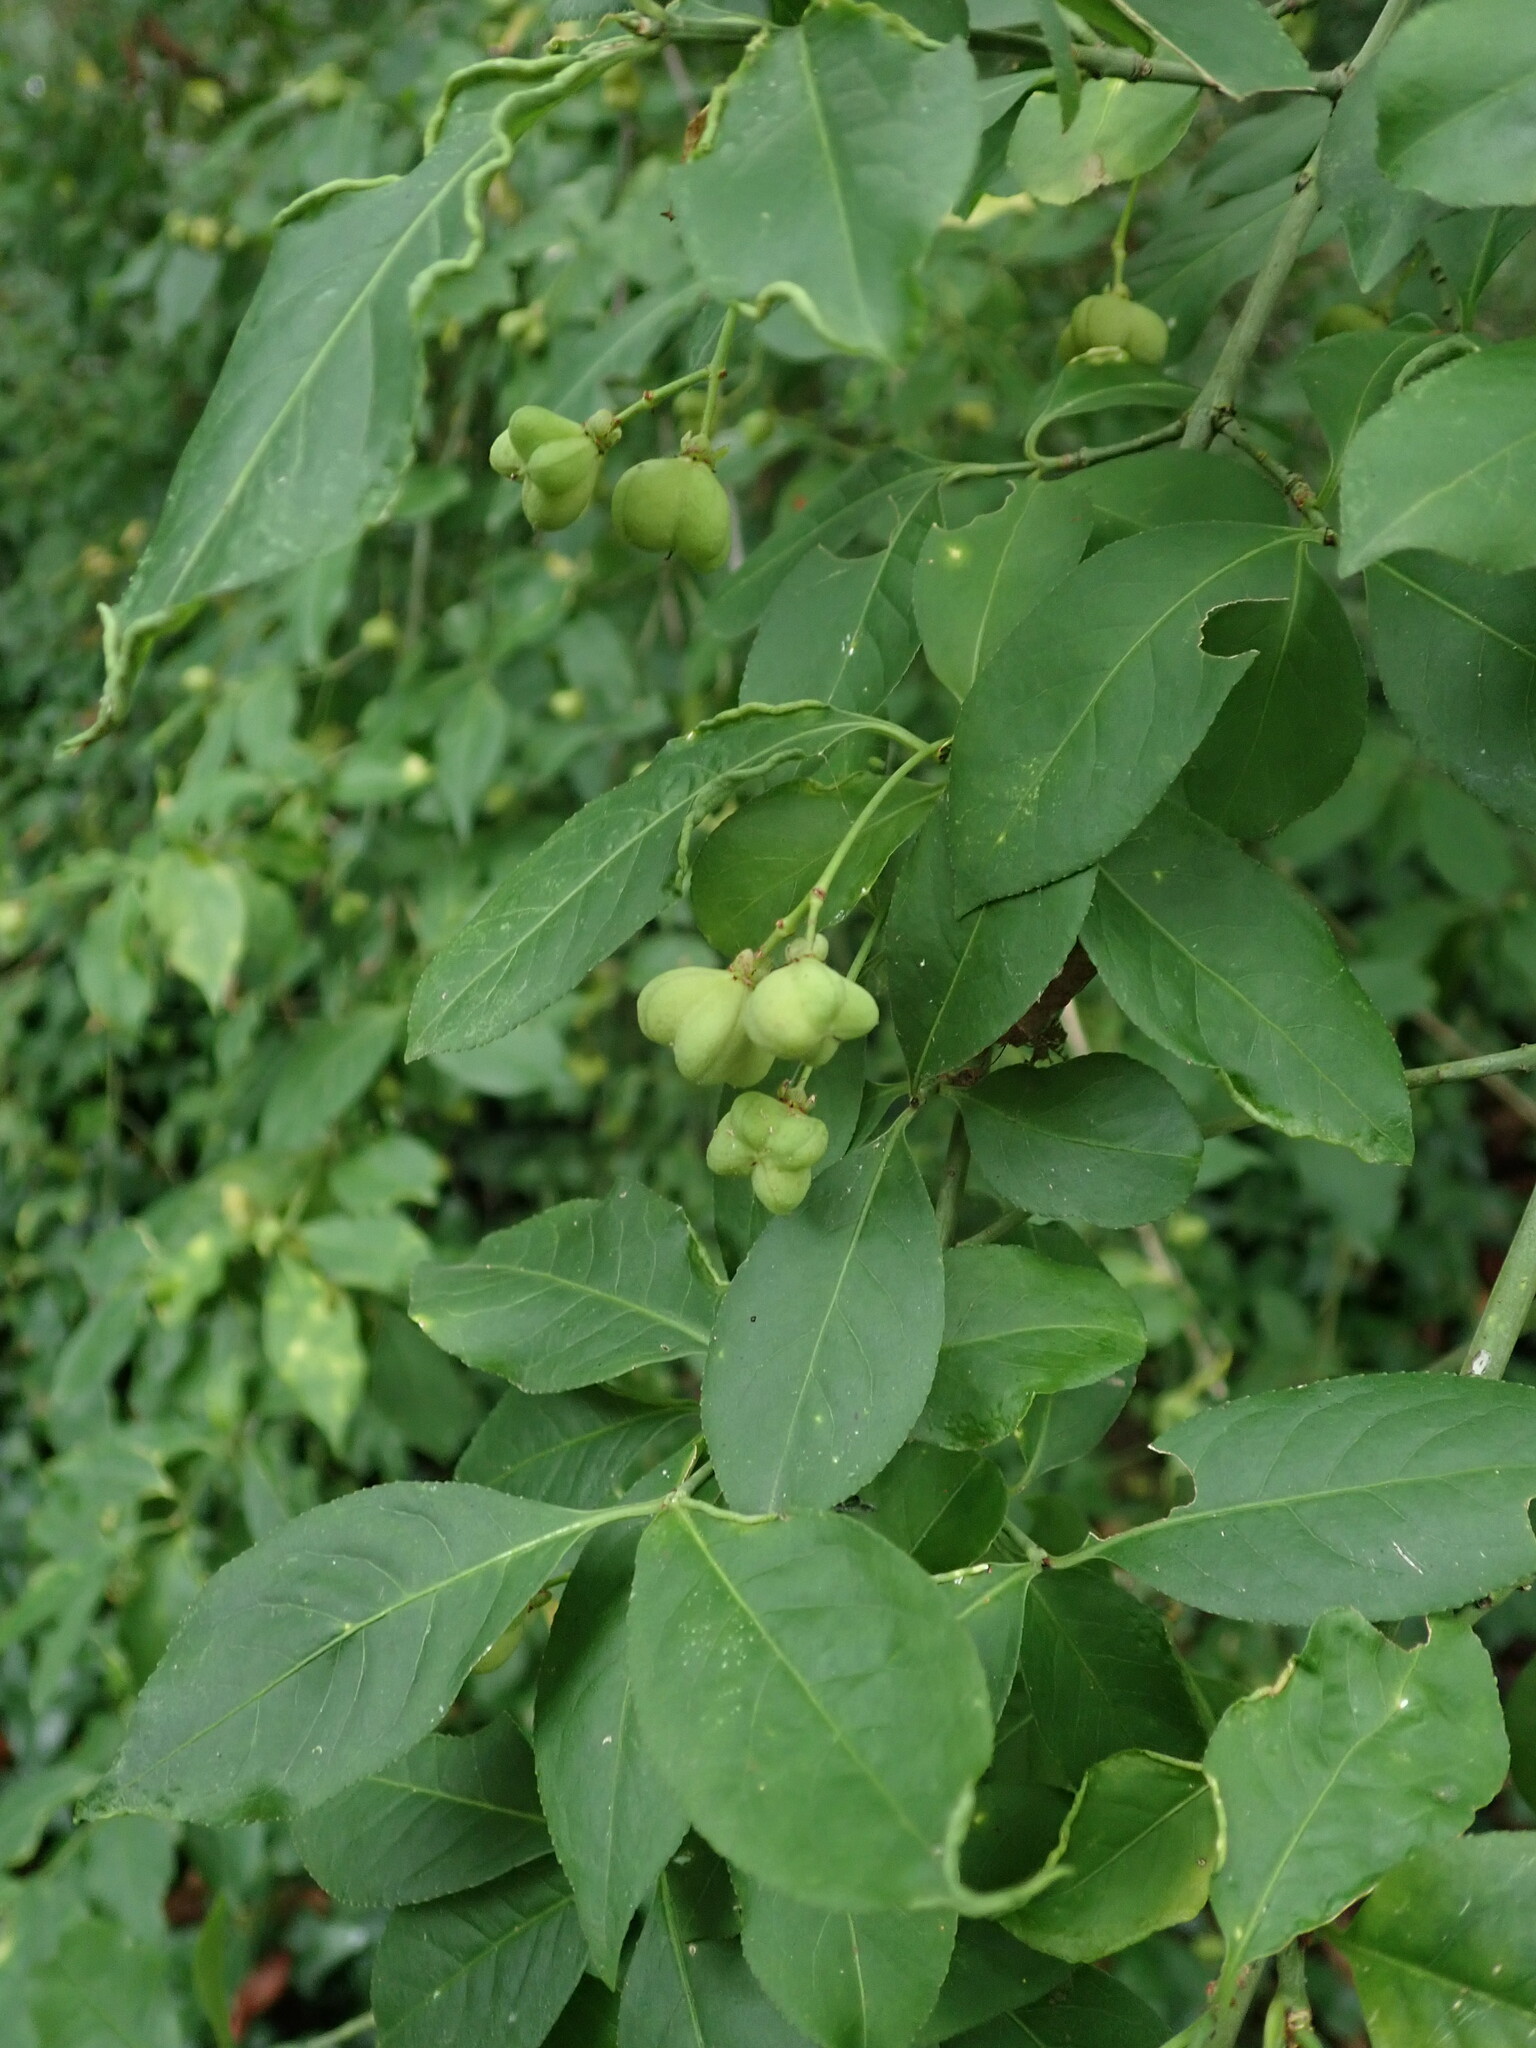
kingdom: Plantae
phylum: Tracheophyta
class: Magnoliopsida
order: Celastrales
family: Celastraceae
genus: Euonymus
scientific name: Euonymus europaeus
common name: Spindle
